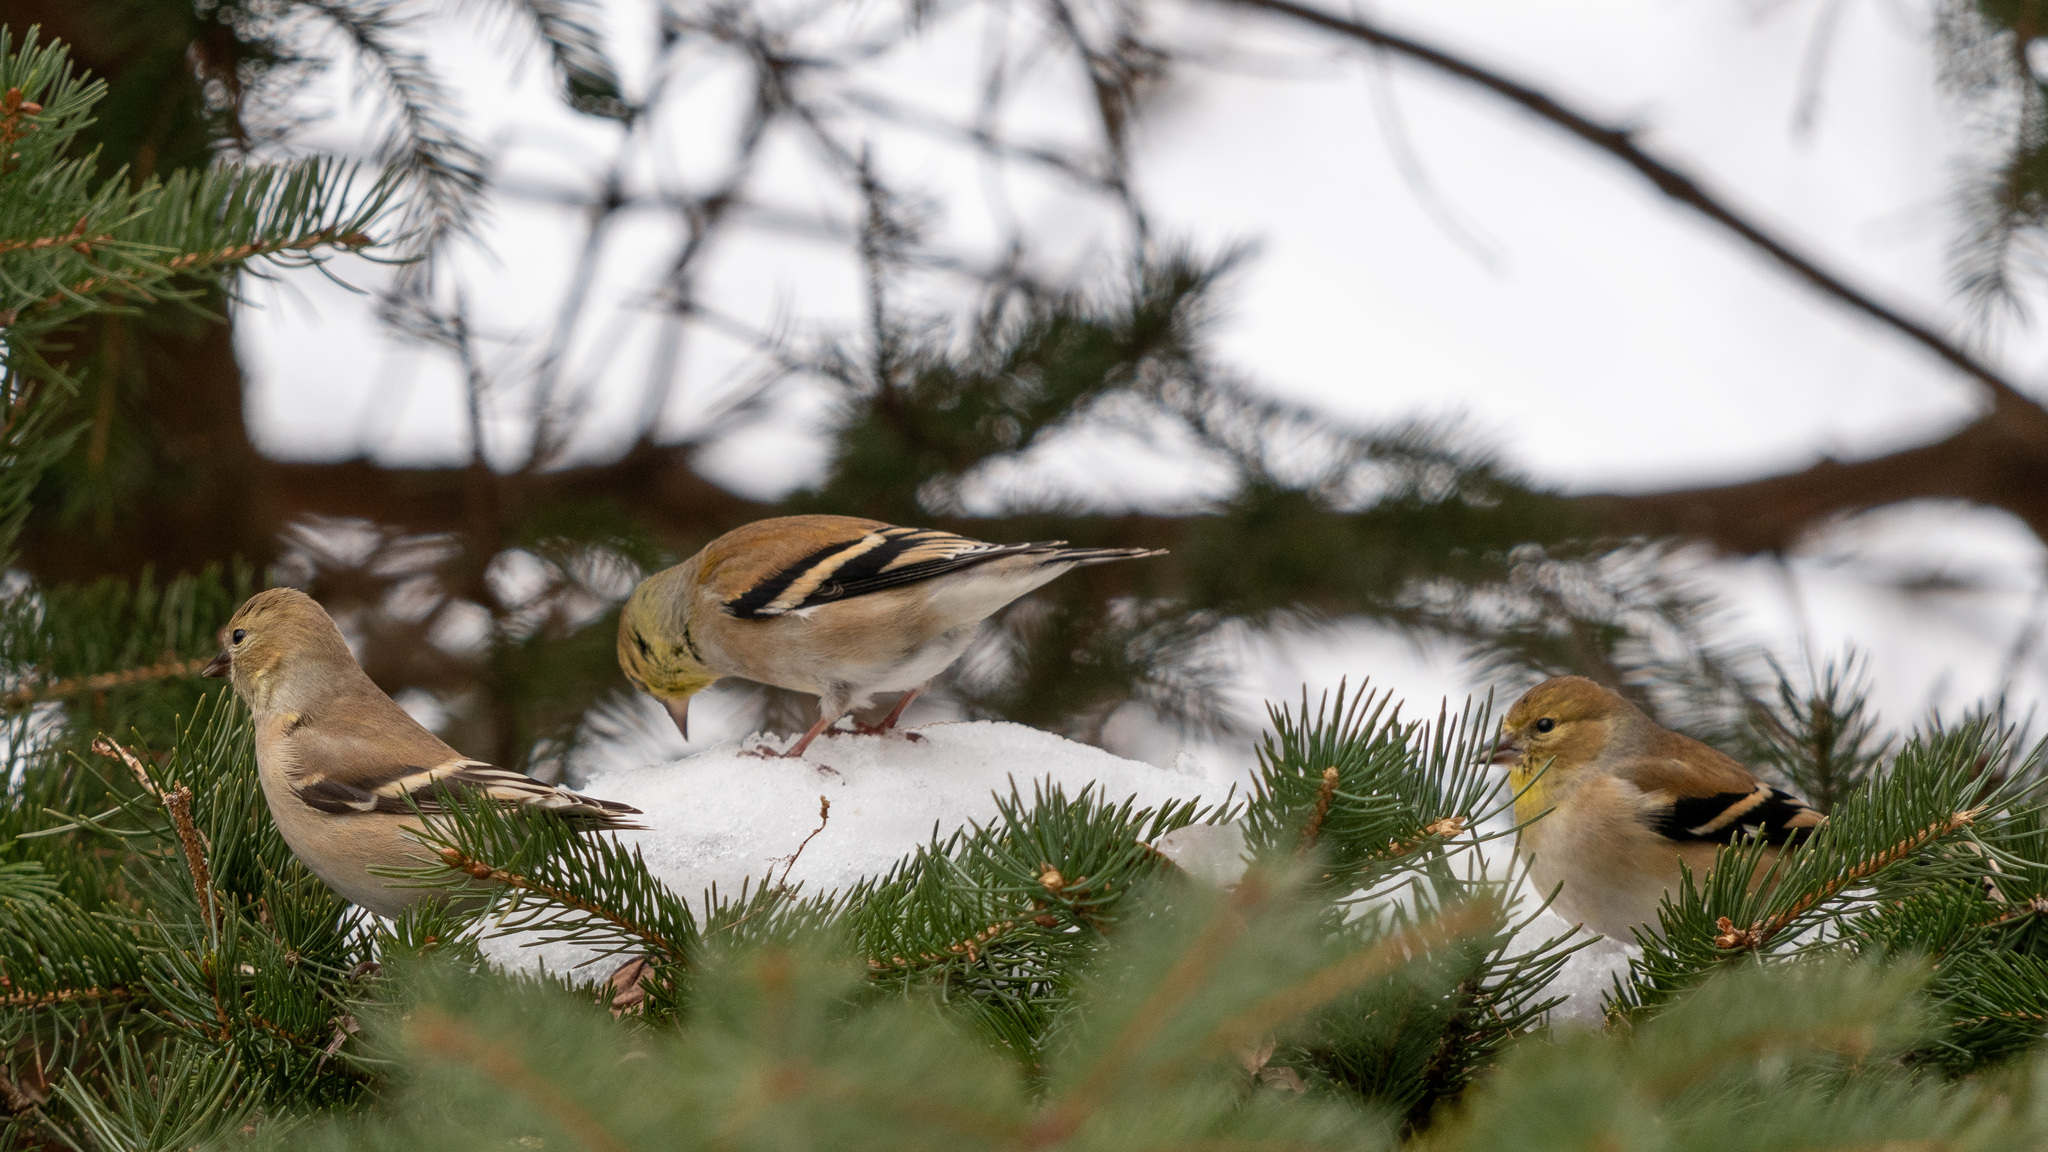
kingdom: Animalia
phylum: Chordata
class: Aves
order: Passeriformes
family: Fringillidae
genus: Spinus
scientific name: Spinus tristis
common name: American goldfinch
